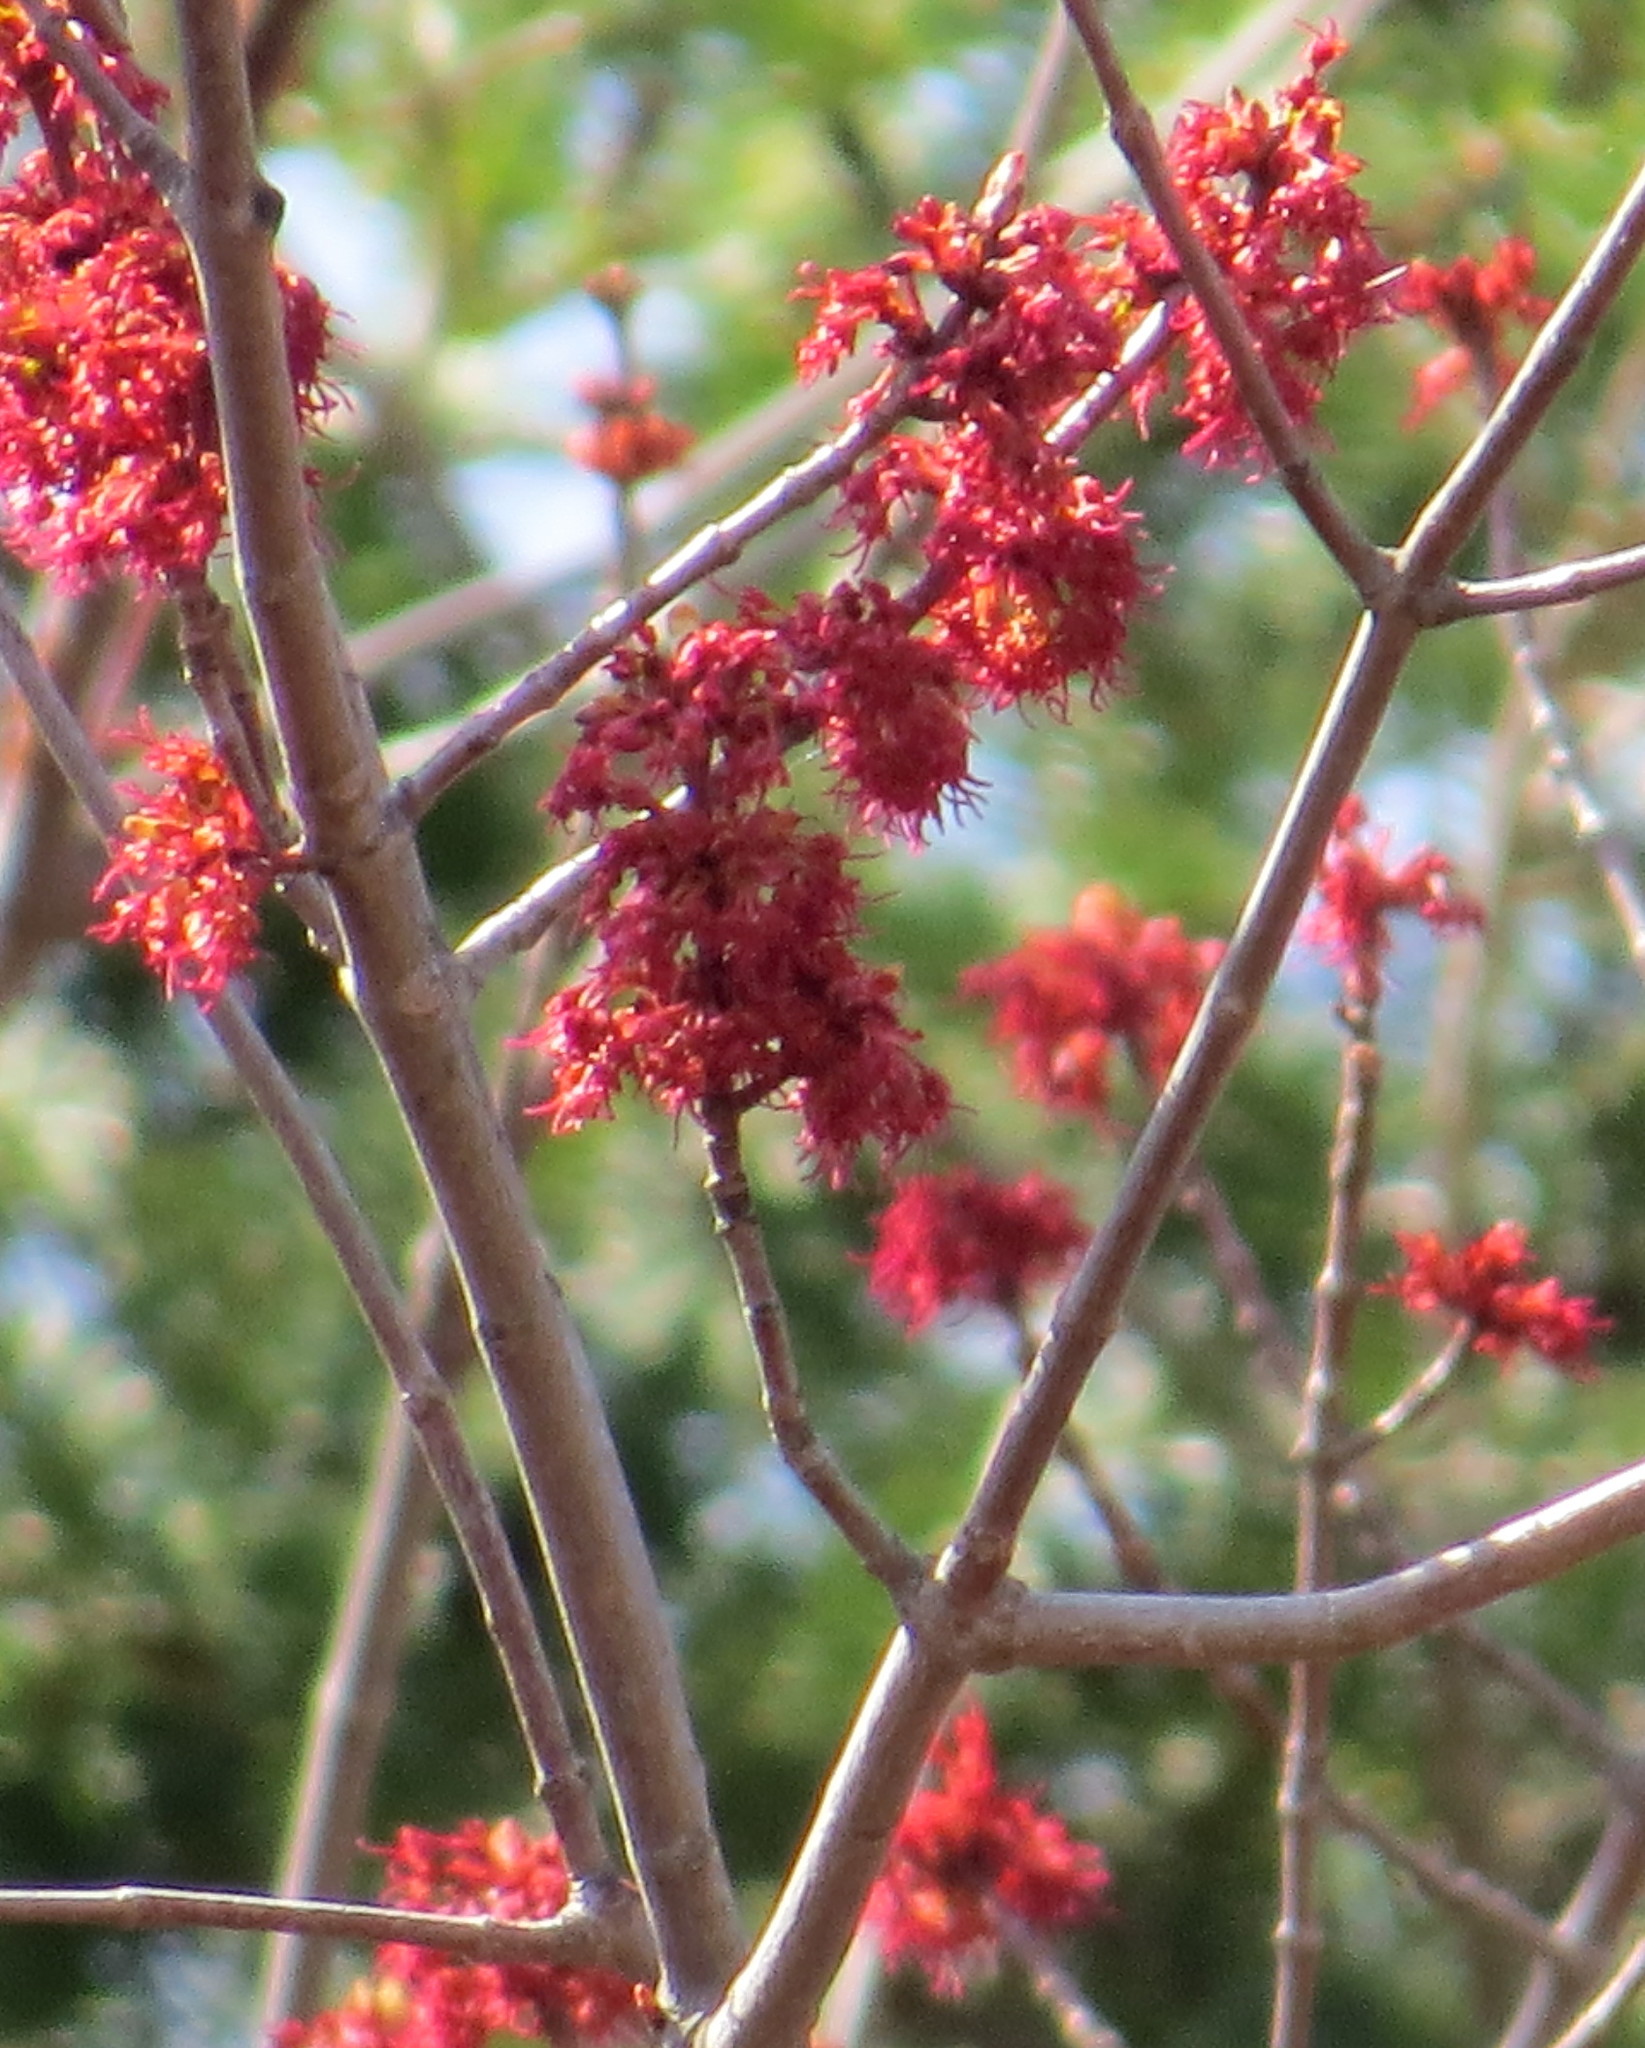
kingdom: Plantae
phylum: Tracheophyta
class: Magnoliopsida
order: Sapindales
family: Sapindaceae
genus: Acer
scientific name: Acer rubrum
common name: Red maple
